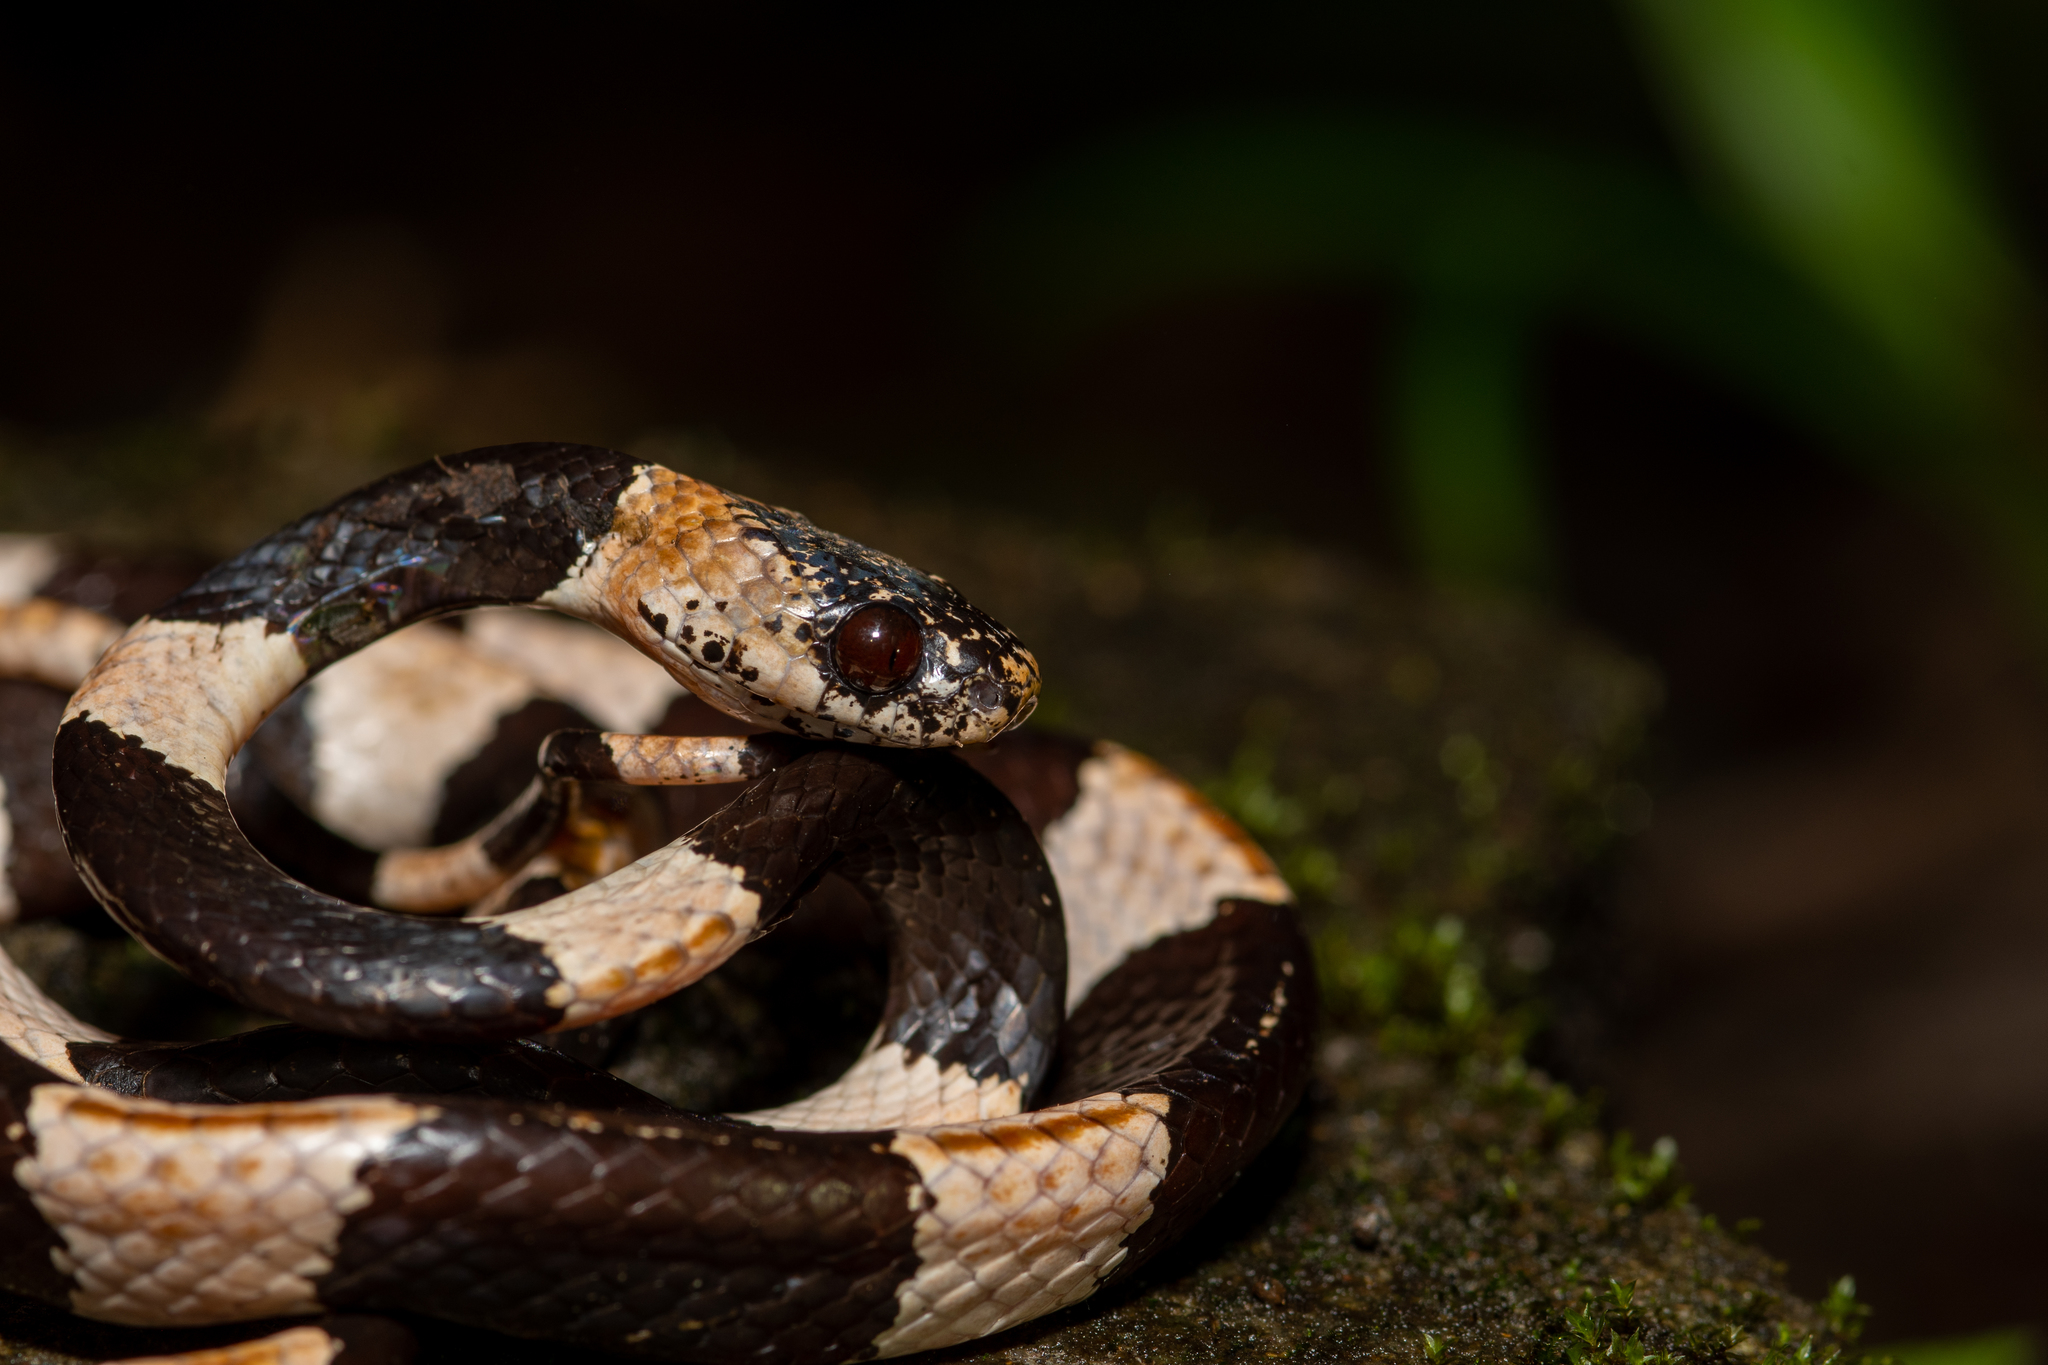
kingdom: Animalia
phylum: Chordata
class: Squamata
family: Colubridae
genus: Dipsas
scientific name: Dipsas articulata
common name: American snail-eater
